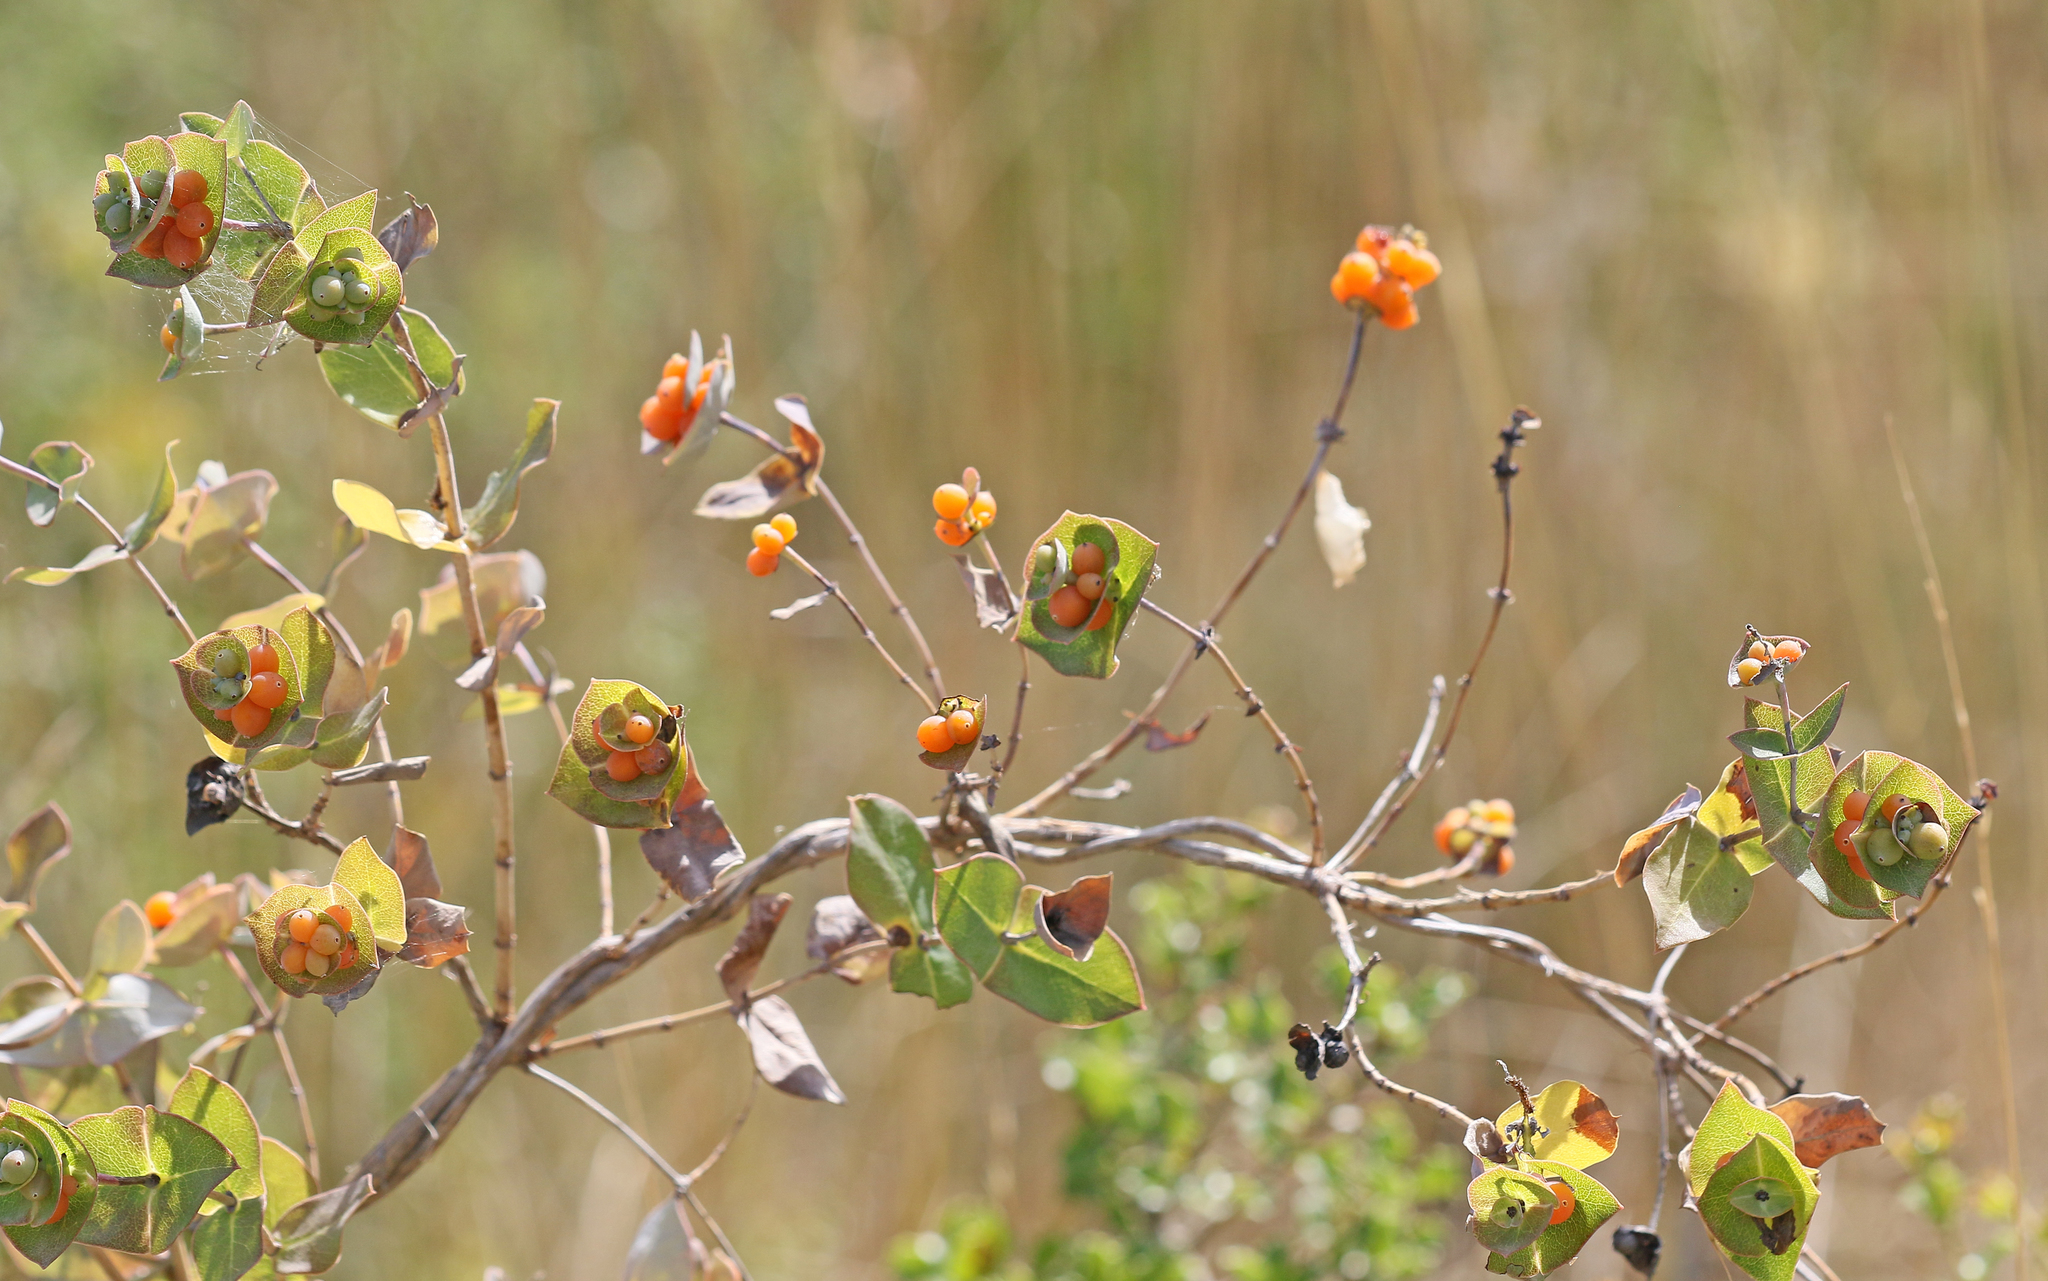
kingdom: Plantae
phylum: Tracheophyta
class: Magnoliopsida
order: Dipsacales
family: Caprifoliaceae
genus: Lonicera
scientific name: Lonicera implexa
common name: Minorca honeysuckle
